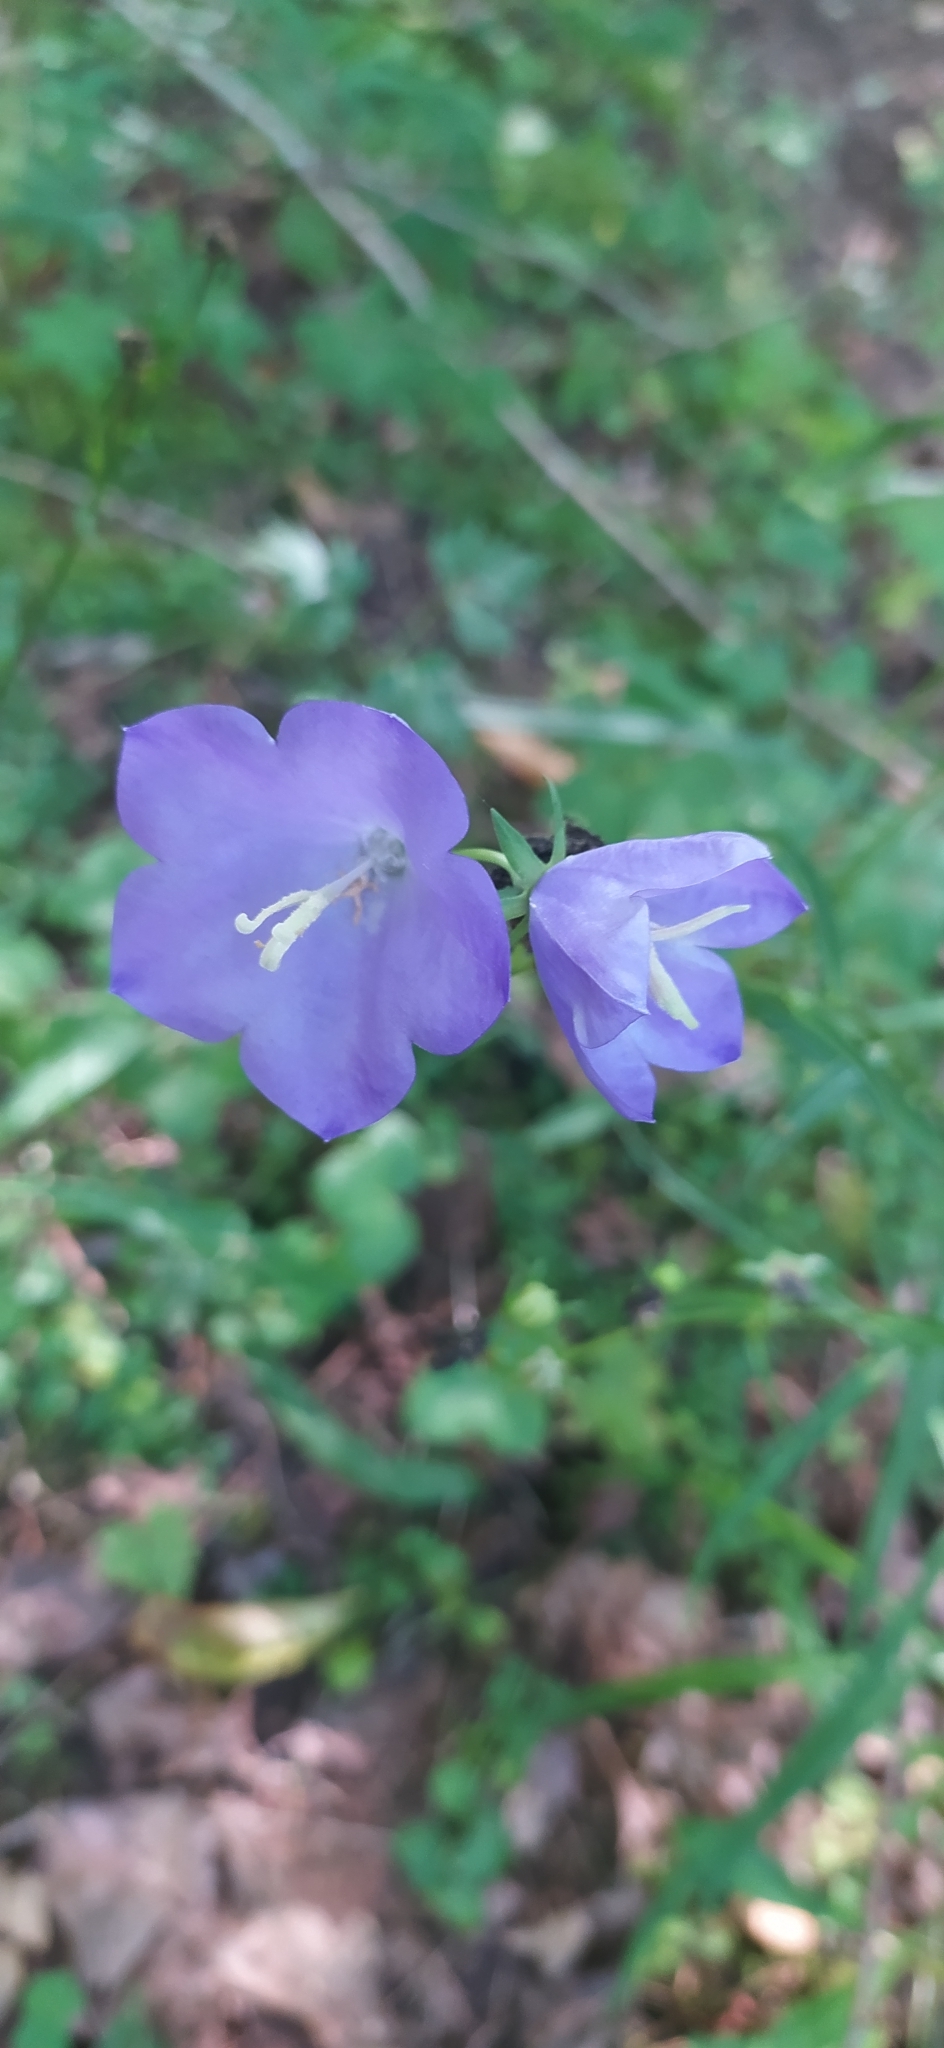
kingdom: Plantae
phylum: Tracheophyta
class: Magnoliopsida
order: Asterales
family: Campanulaceae
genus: Campanula
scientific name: Campanula persicifolia
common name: Peach-leaved bellflower
